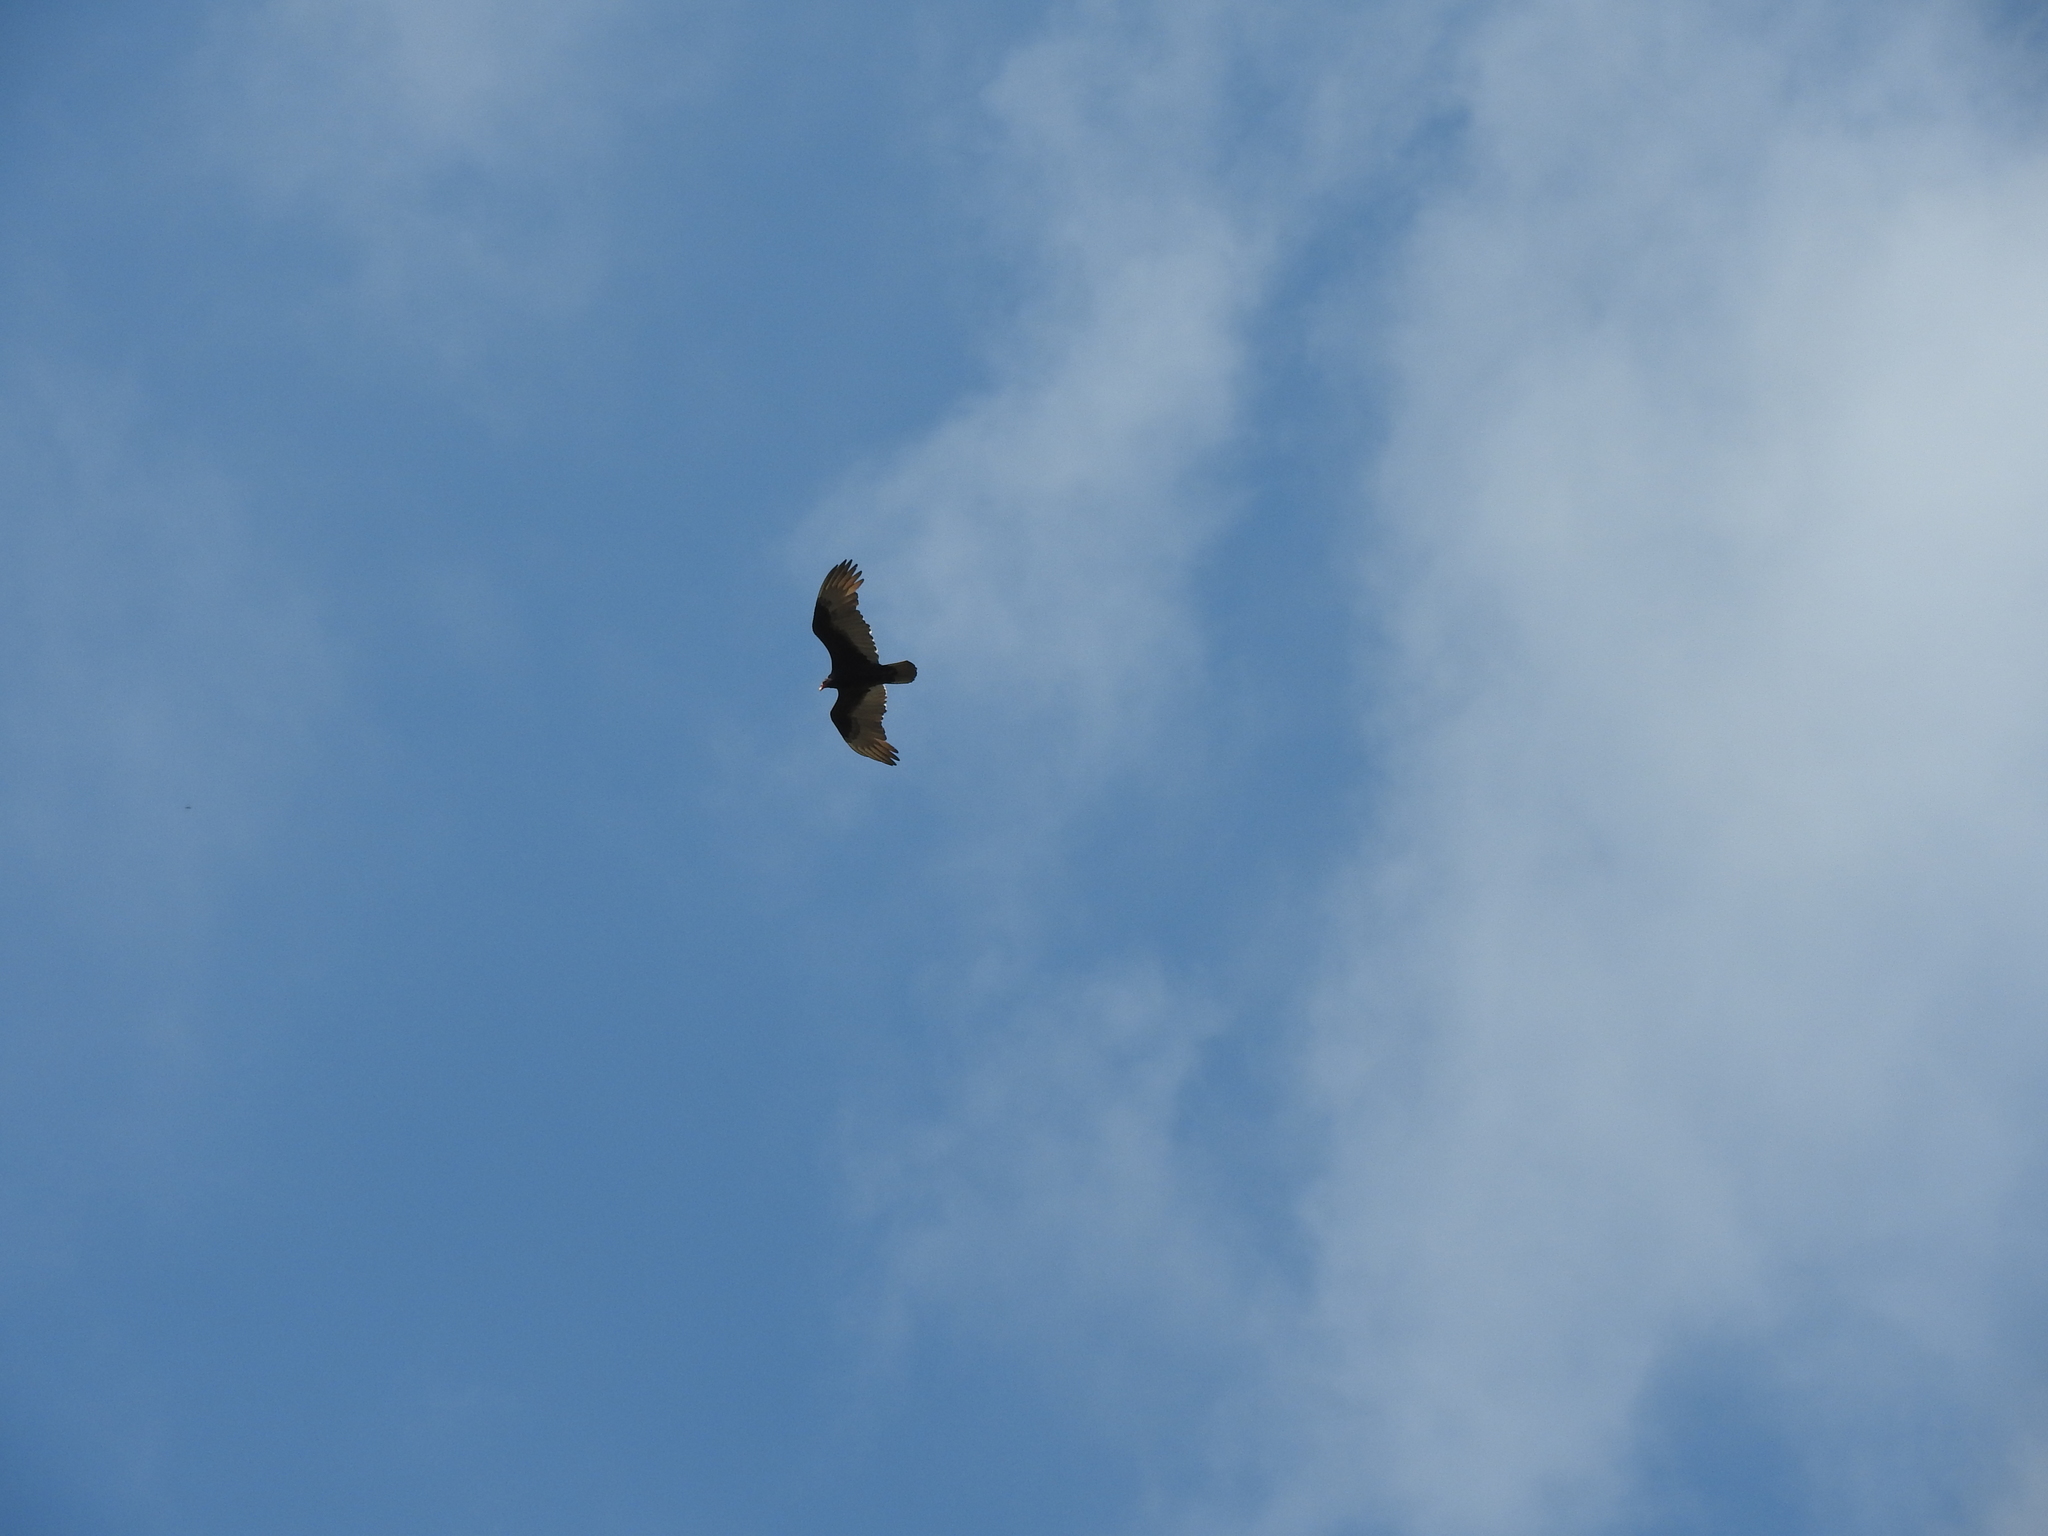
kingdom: Animalia
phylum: Chordata
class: Aves
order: Accipitriformes
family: Cathartidae
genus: Cathartes
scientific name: Cathartes aura
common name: Turkey vulture
